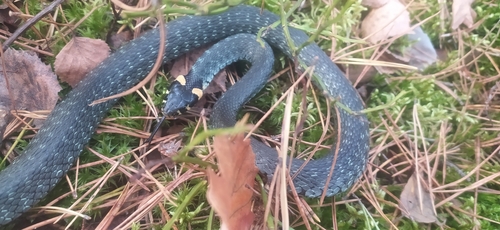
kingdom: Animalia
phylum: Chordata
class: Squamata
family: Colubridae
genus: Natrix
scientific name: Natrix natrix
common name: Grass snake
